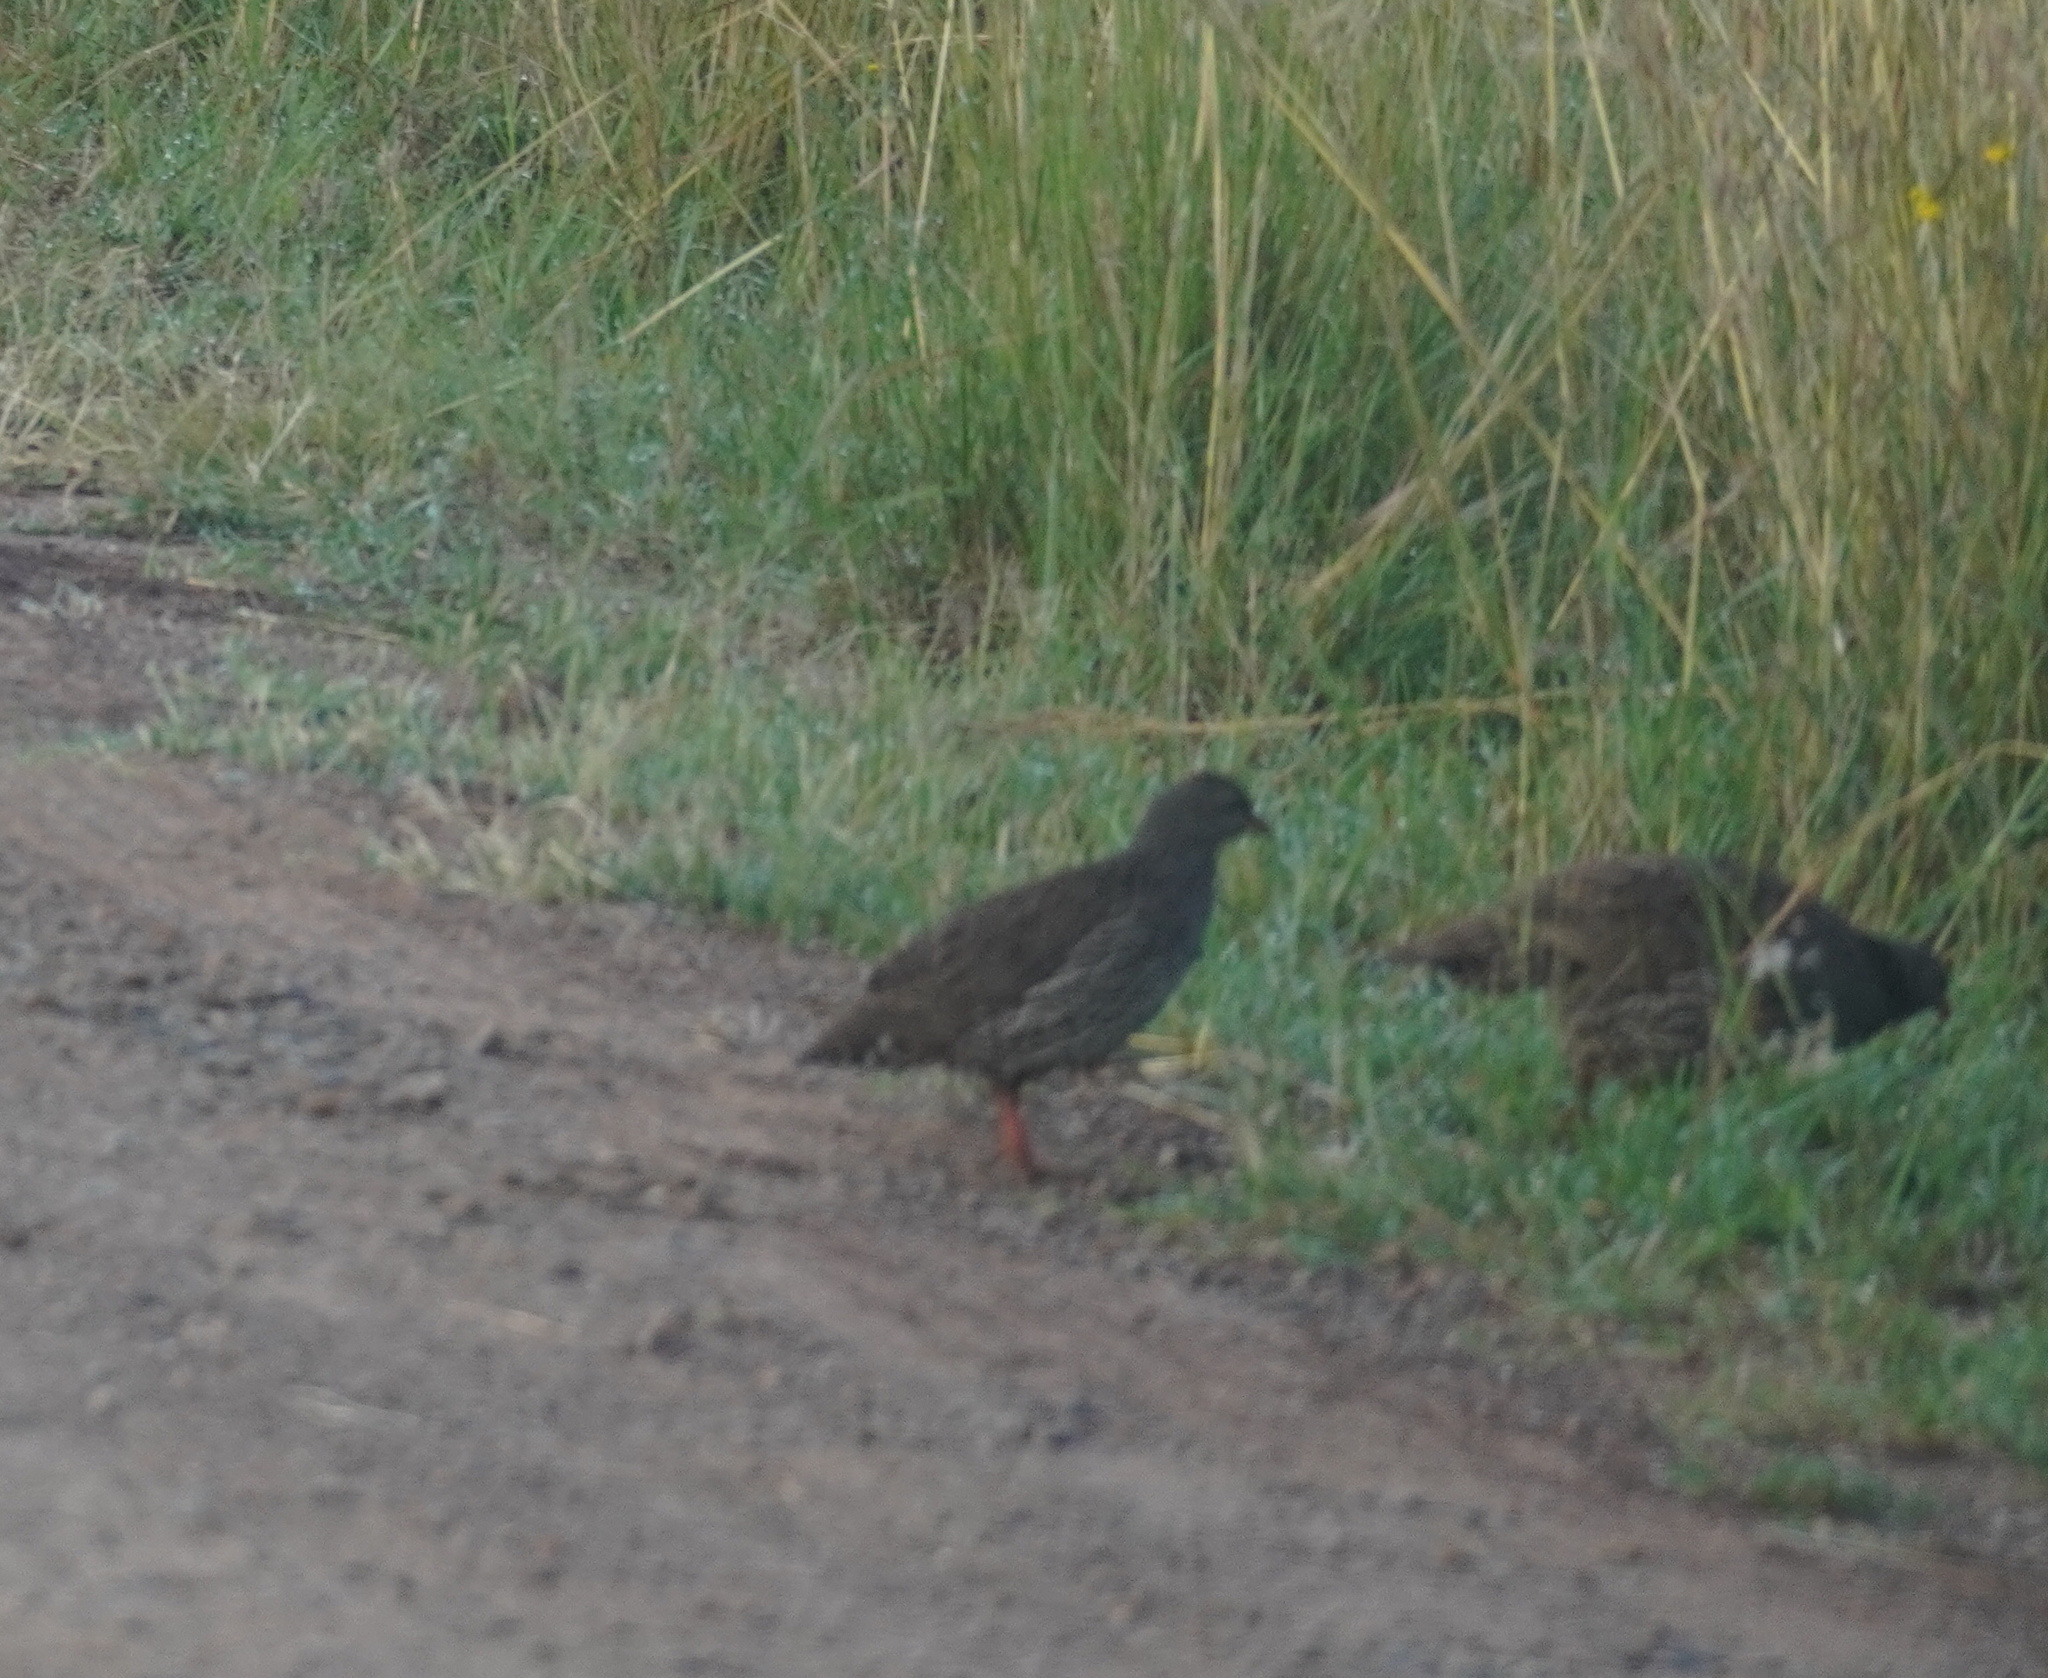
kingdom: Animalia
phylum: Chordata
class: Aves
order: Galliformes
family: Phasianidae
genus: Pternistis
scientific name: Pternistis natalensis
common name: Natal spurfowl
